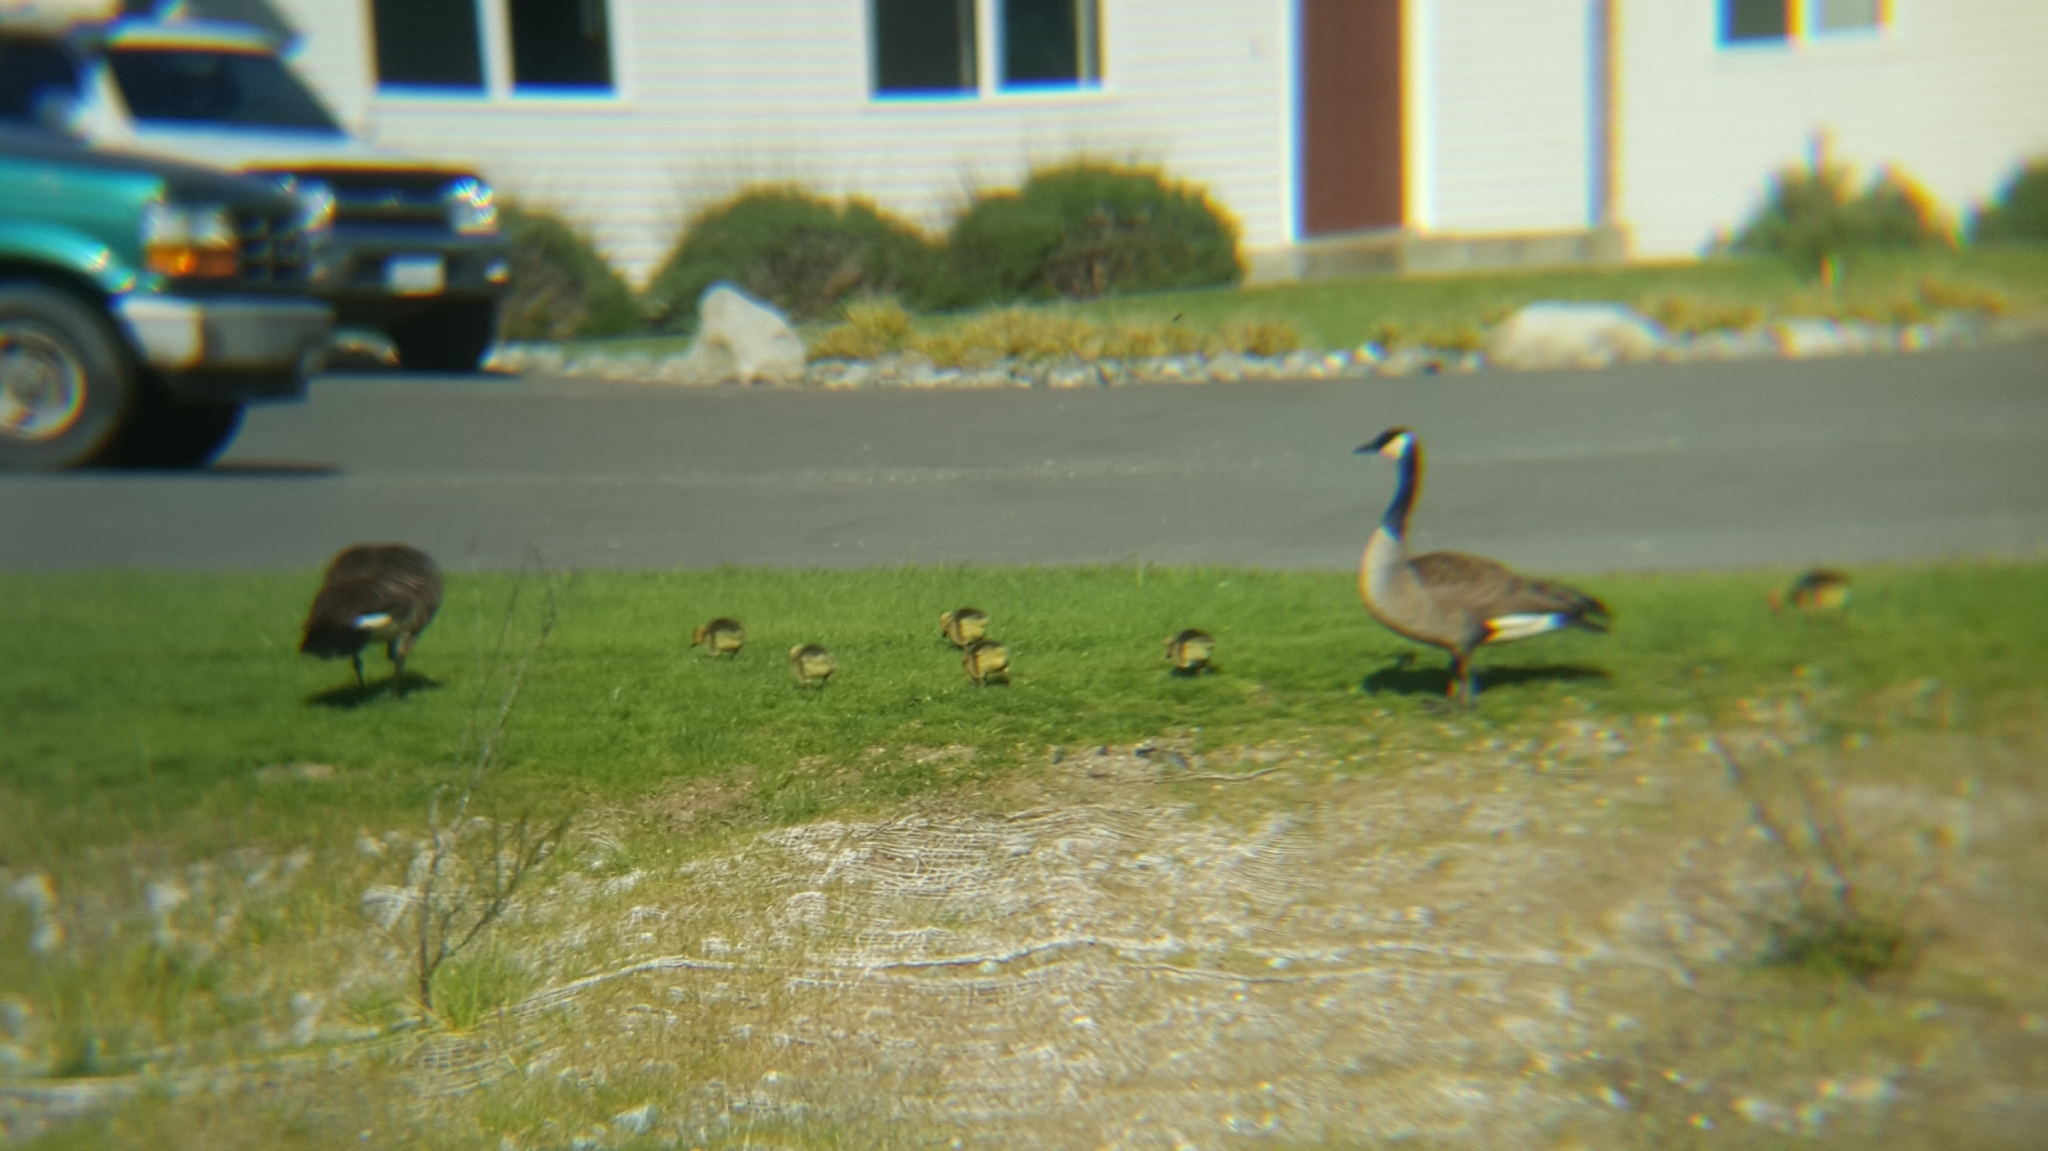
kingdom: Animalia
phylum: Chordata
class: Aves
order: Anseriformes
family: Anatidae
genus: Branta
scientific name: Branta canadensis
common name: Canada goose
